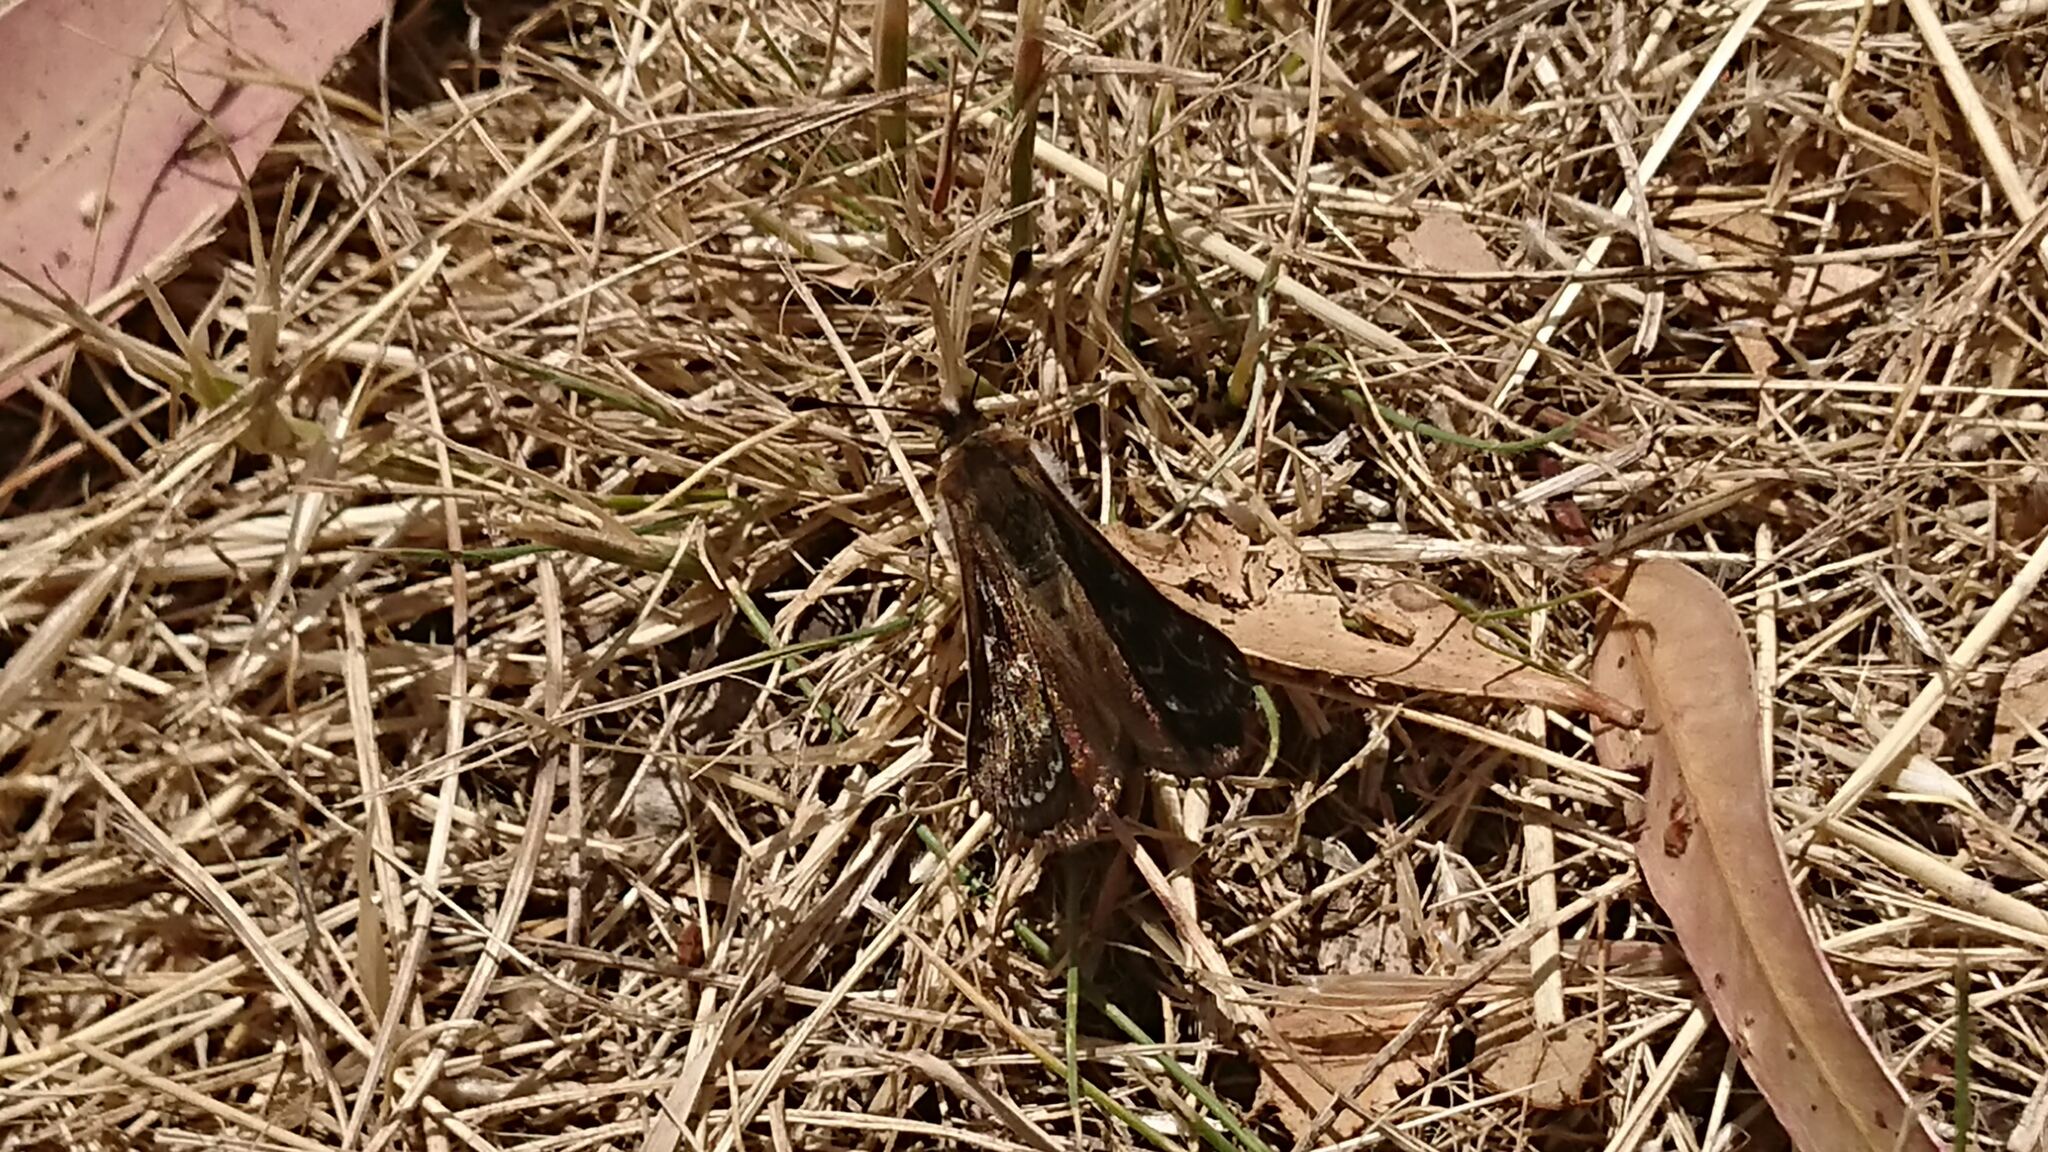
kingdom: Animalia
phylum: Arthropoda
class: Insecta
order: Lepidoptera
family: Castniidae
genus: Synemon
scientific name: Synemon plana
